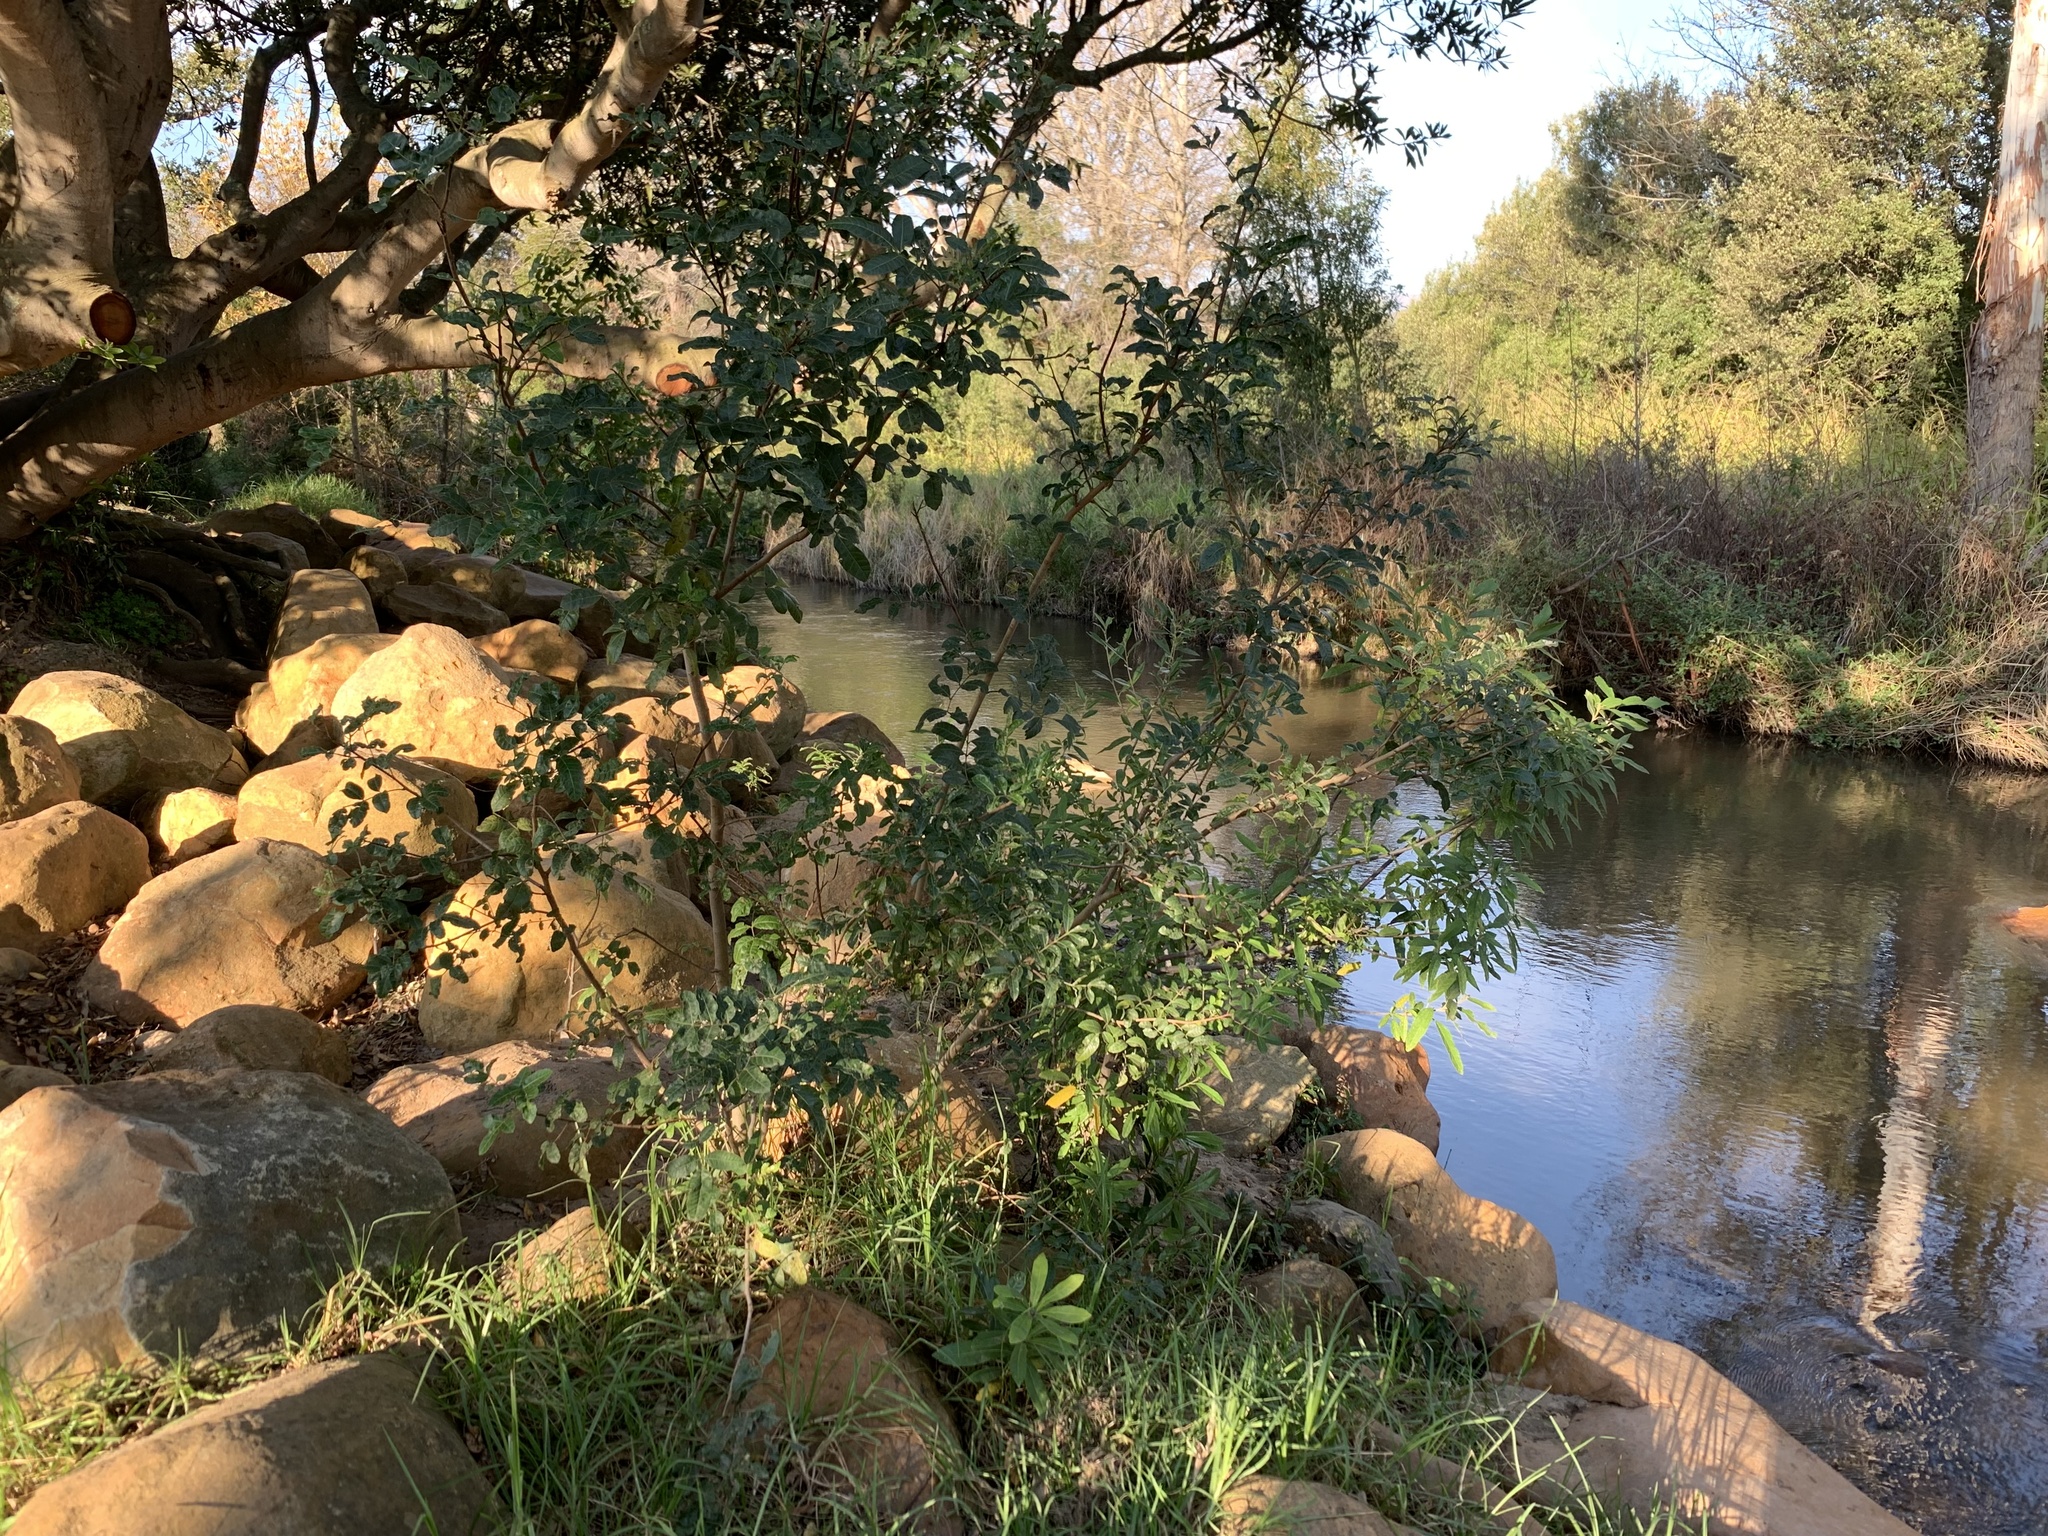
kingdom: Plantae
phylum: Tracheophyta
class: Magnoliopsida
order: Sapindales
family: Anacardiaceae
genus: Schinus
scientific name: Schinus terebinthifolia
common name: Brazilian peppertree
